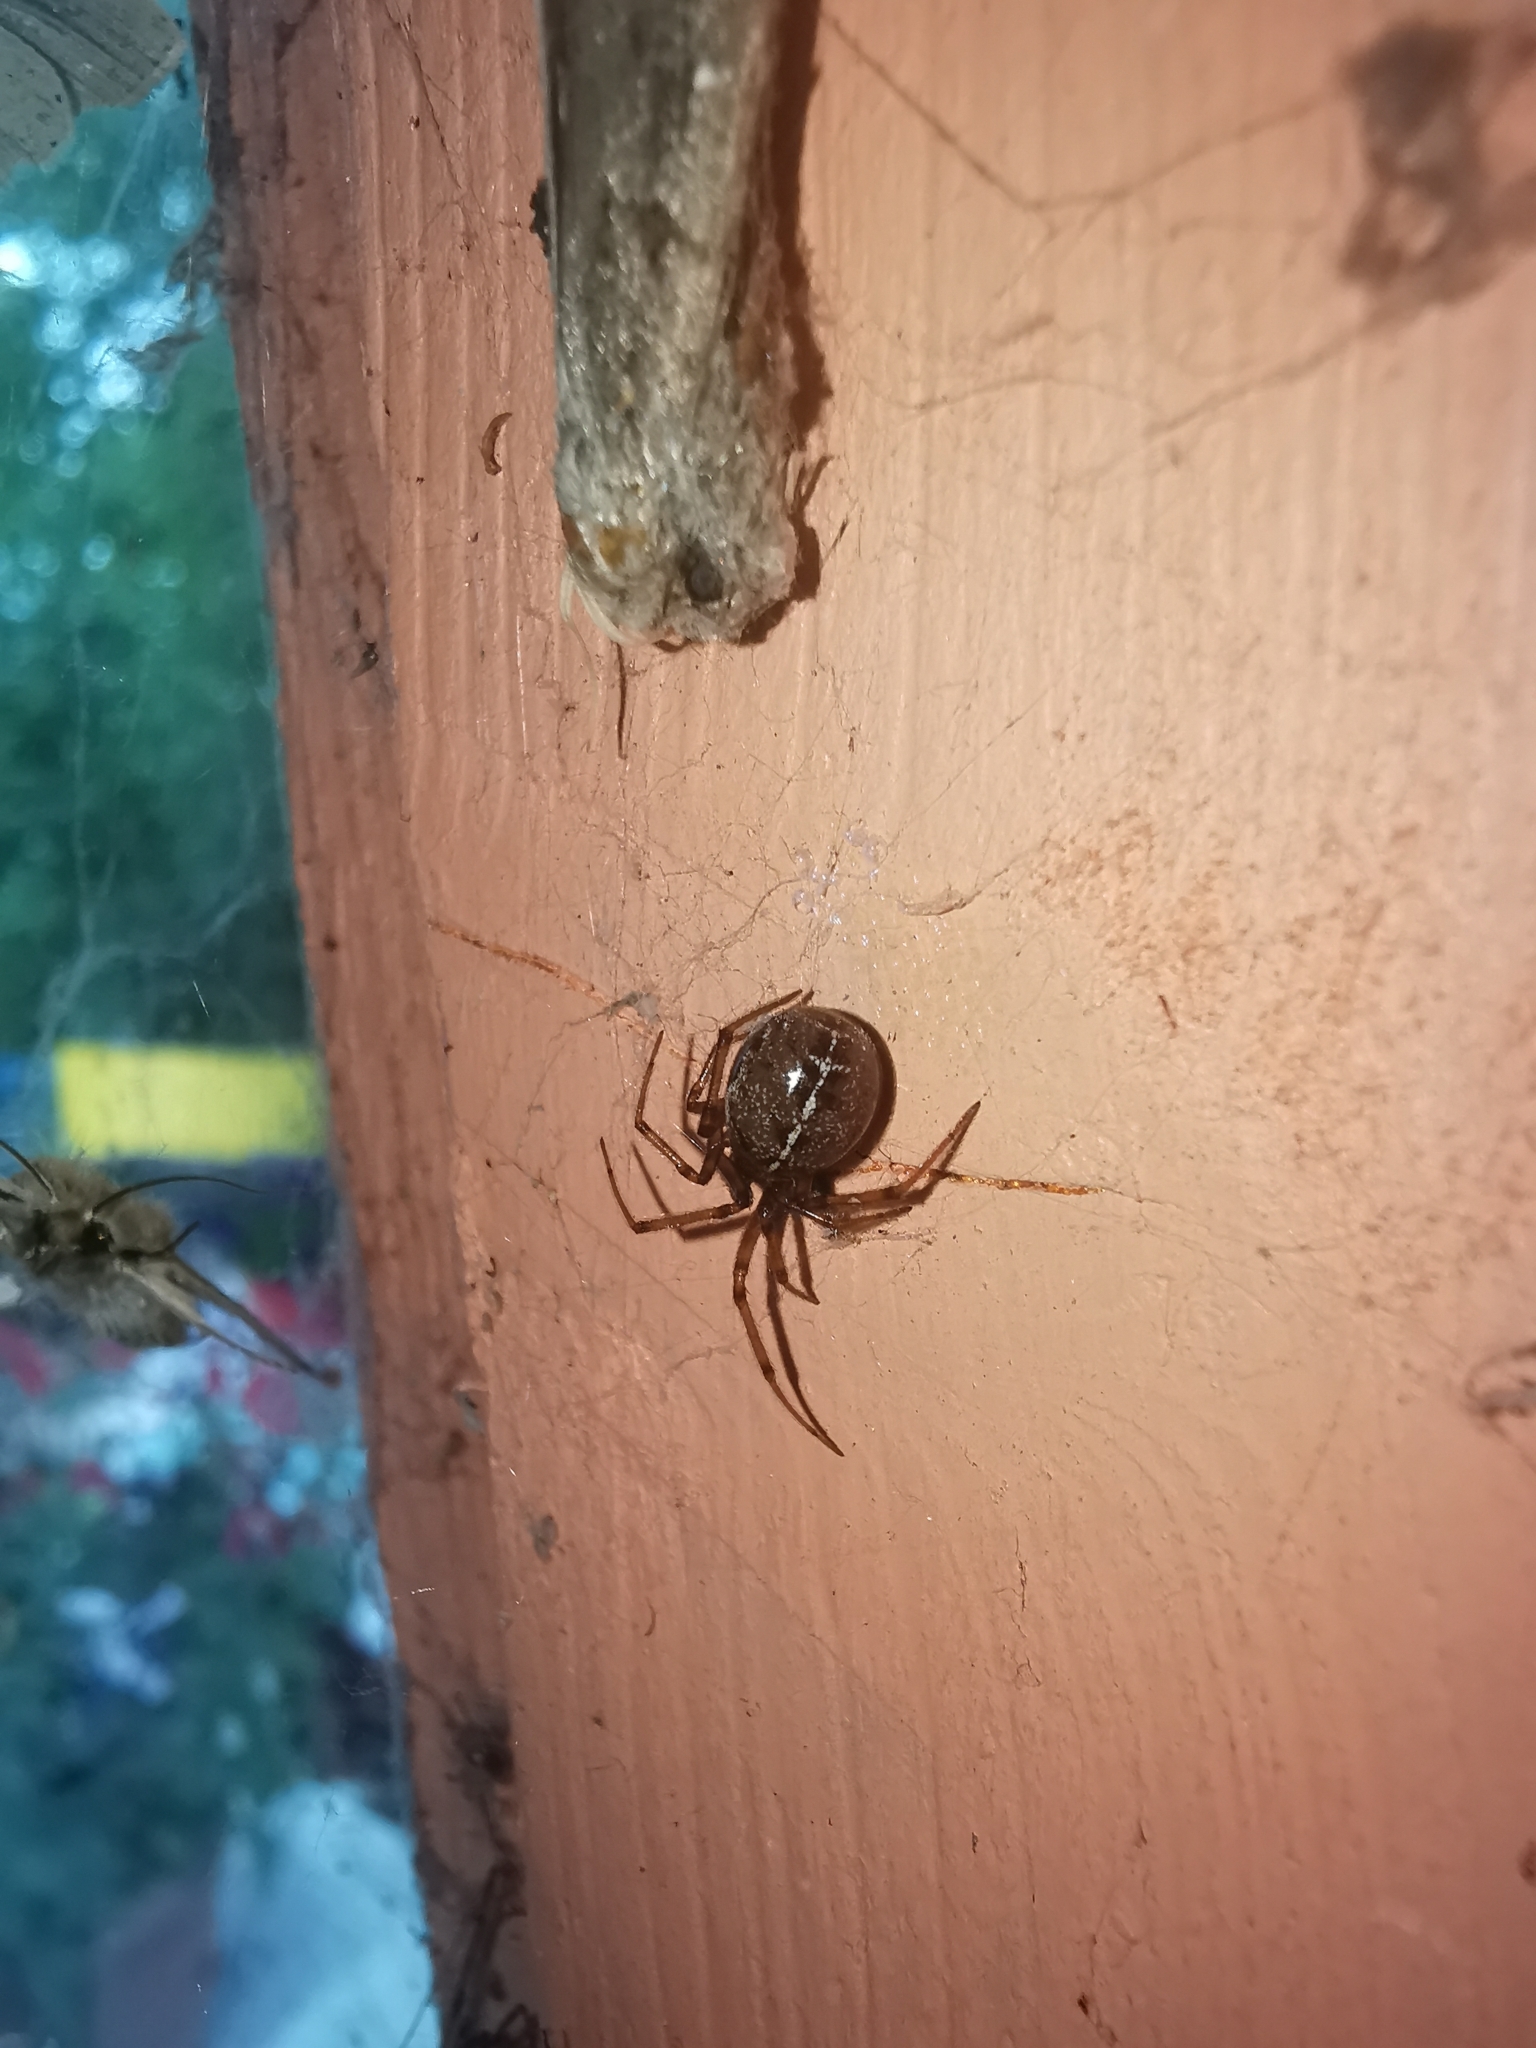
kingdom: Animalia
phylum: Arthropoda
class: Arachnida
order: Araneae
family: Theridiidae
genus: Steatoda
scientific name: Steatoda castanea
